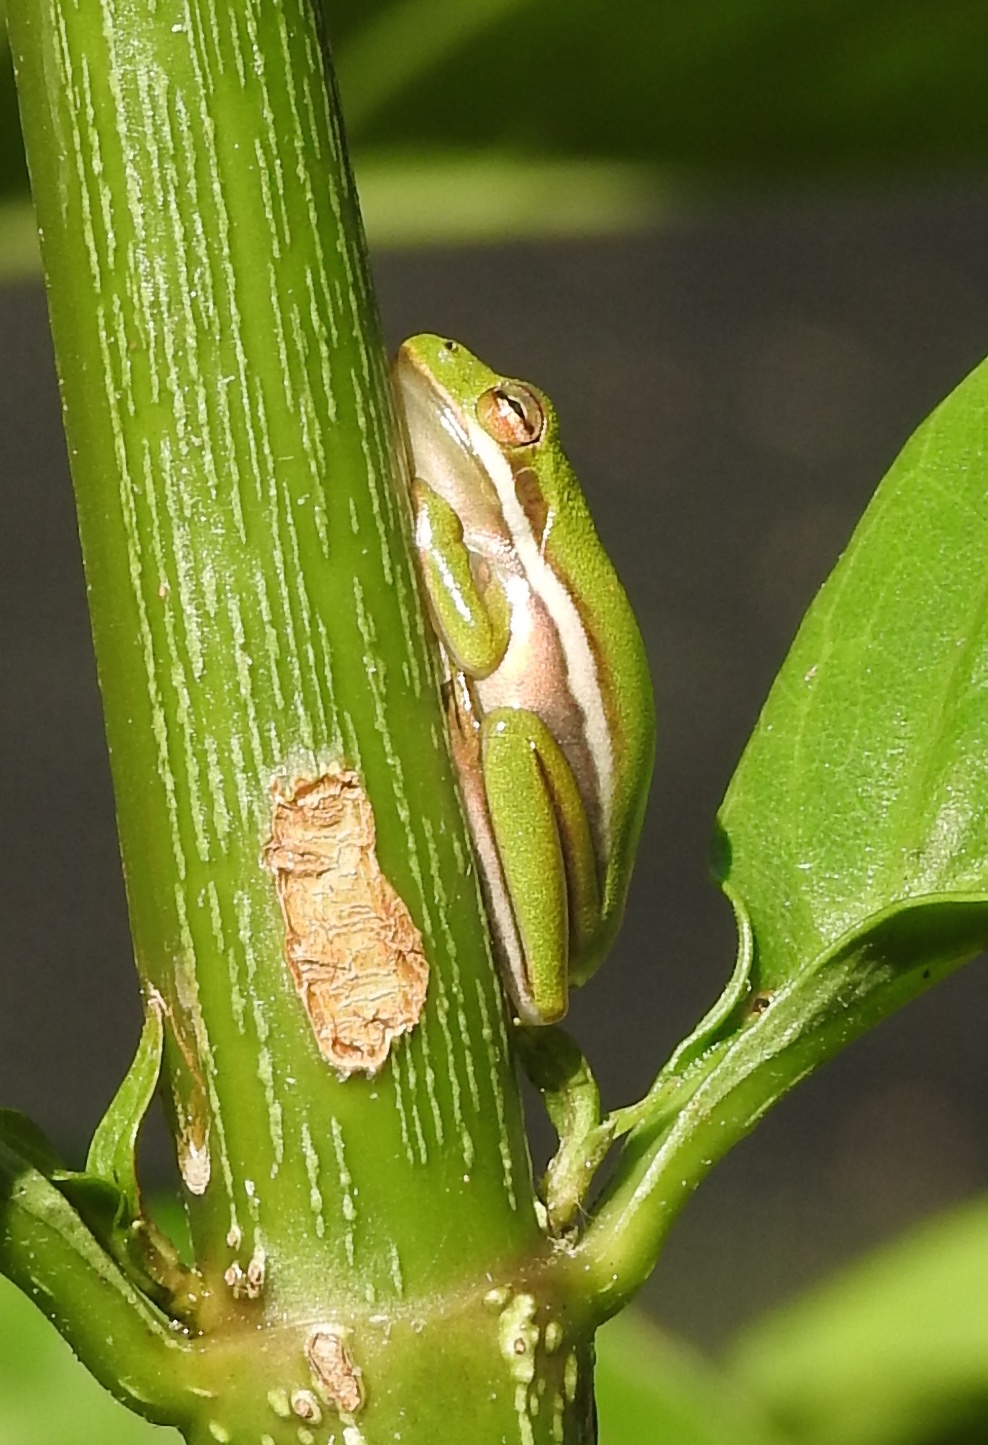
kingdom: Animalia
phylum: Chordata
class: Amphibia
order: Anura
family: Hylidae
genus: Dryophytes
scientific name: Dryophytes cinereus
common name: Green treefrog
